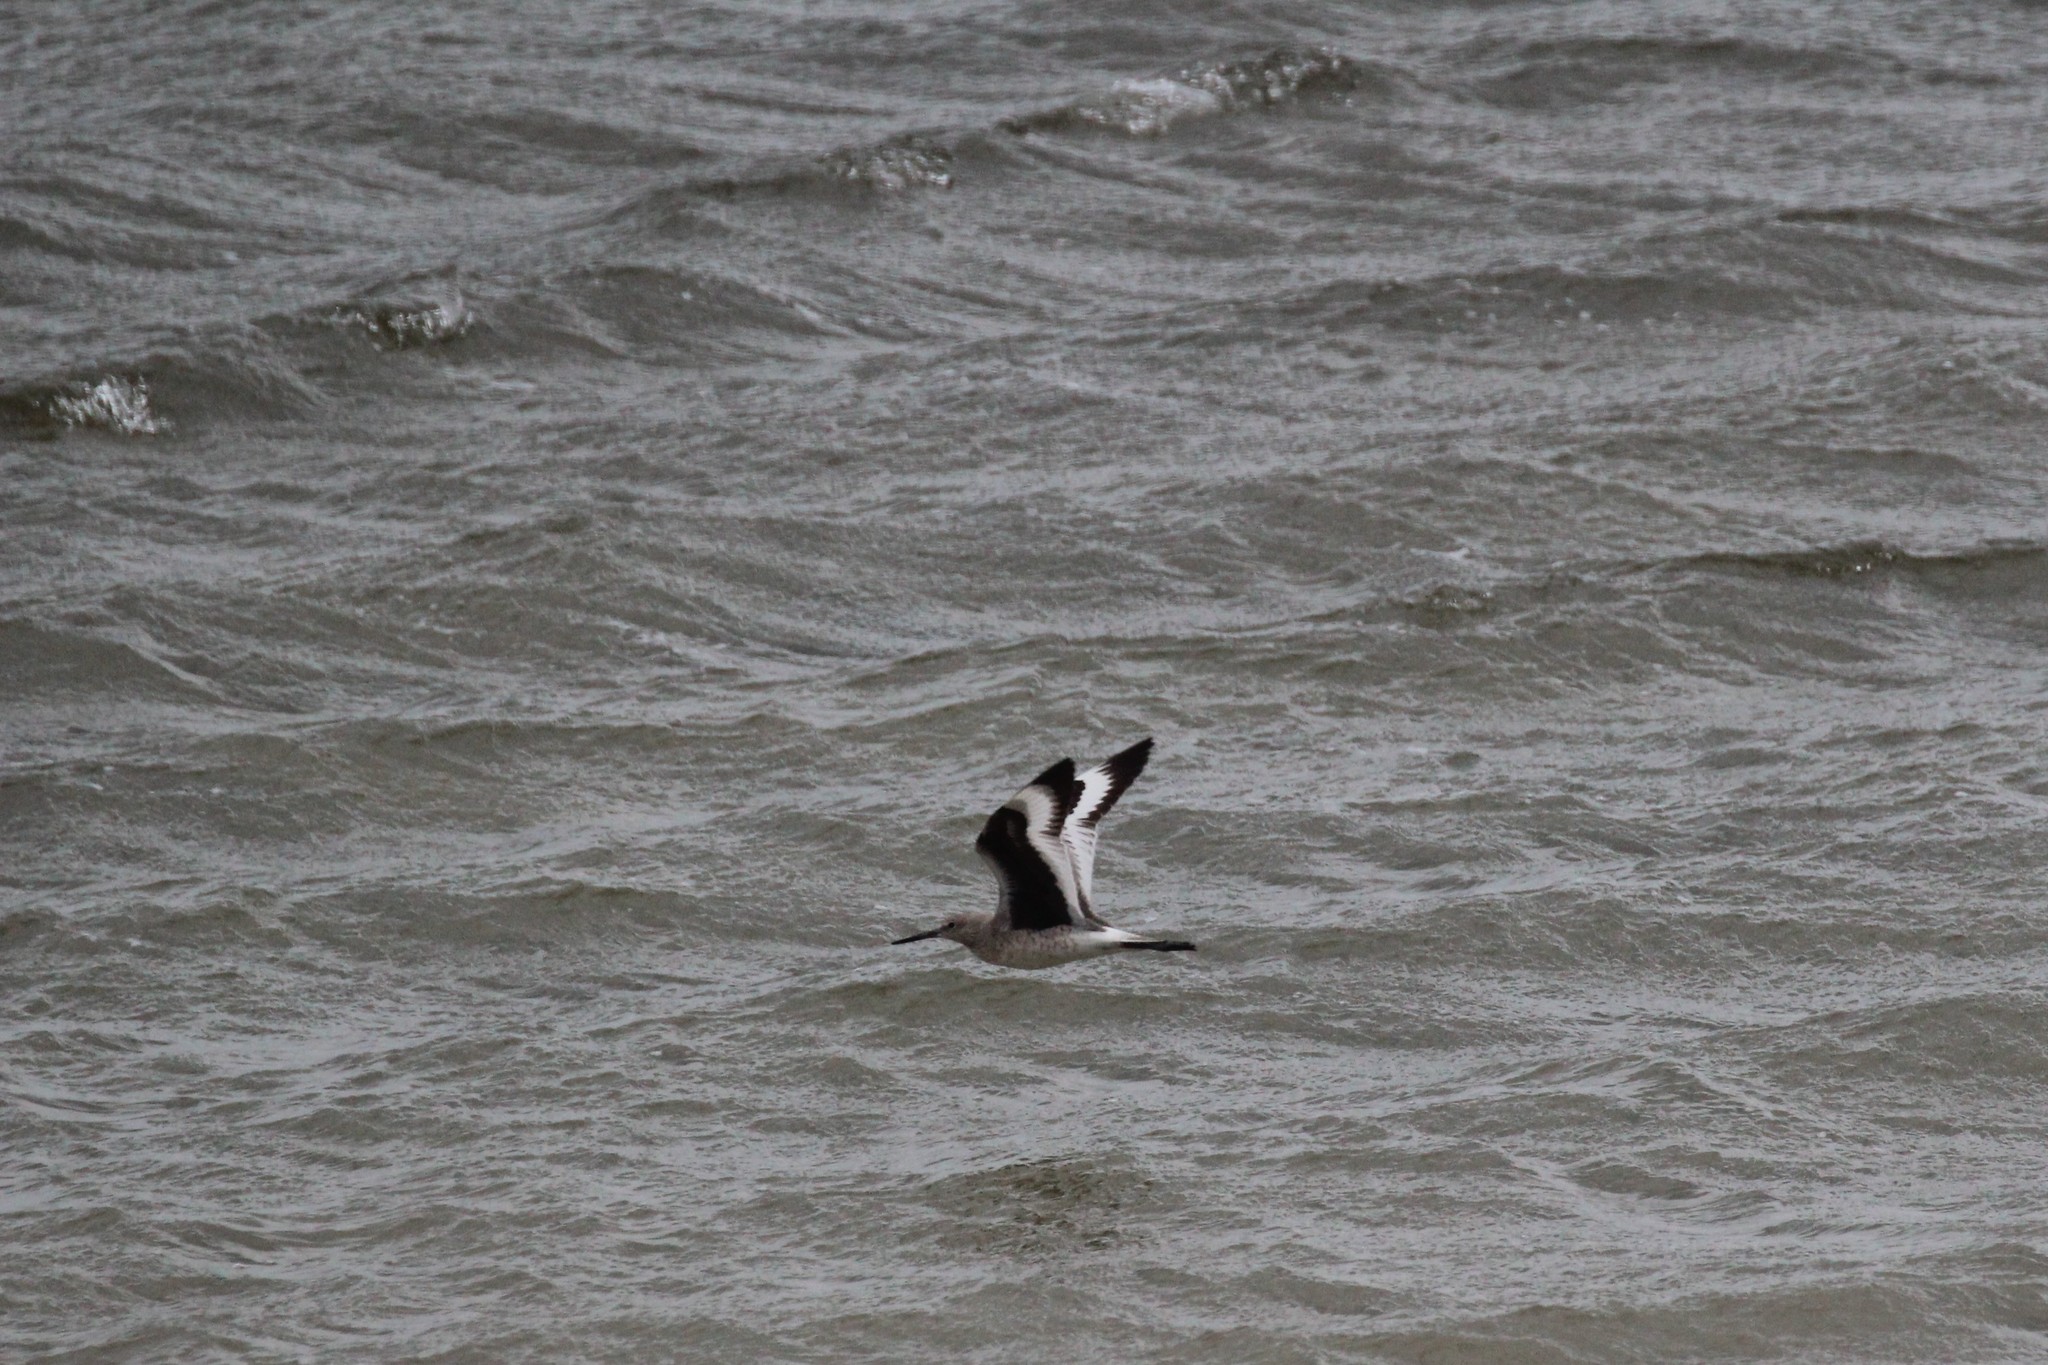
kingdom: Animalia
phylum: Chordata
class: Aves
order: Charadriiformes
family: Scolopacidae
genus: Tringa
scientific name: Tringa semipalmata
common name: Willet
